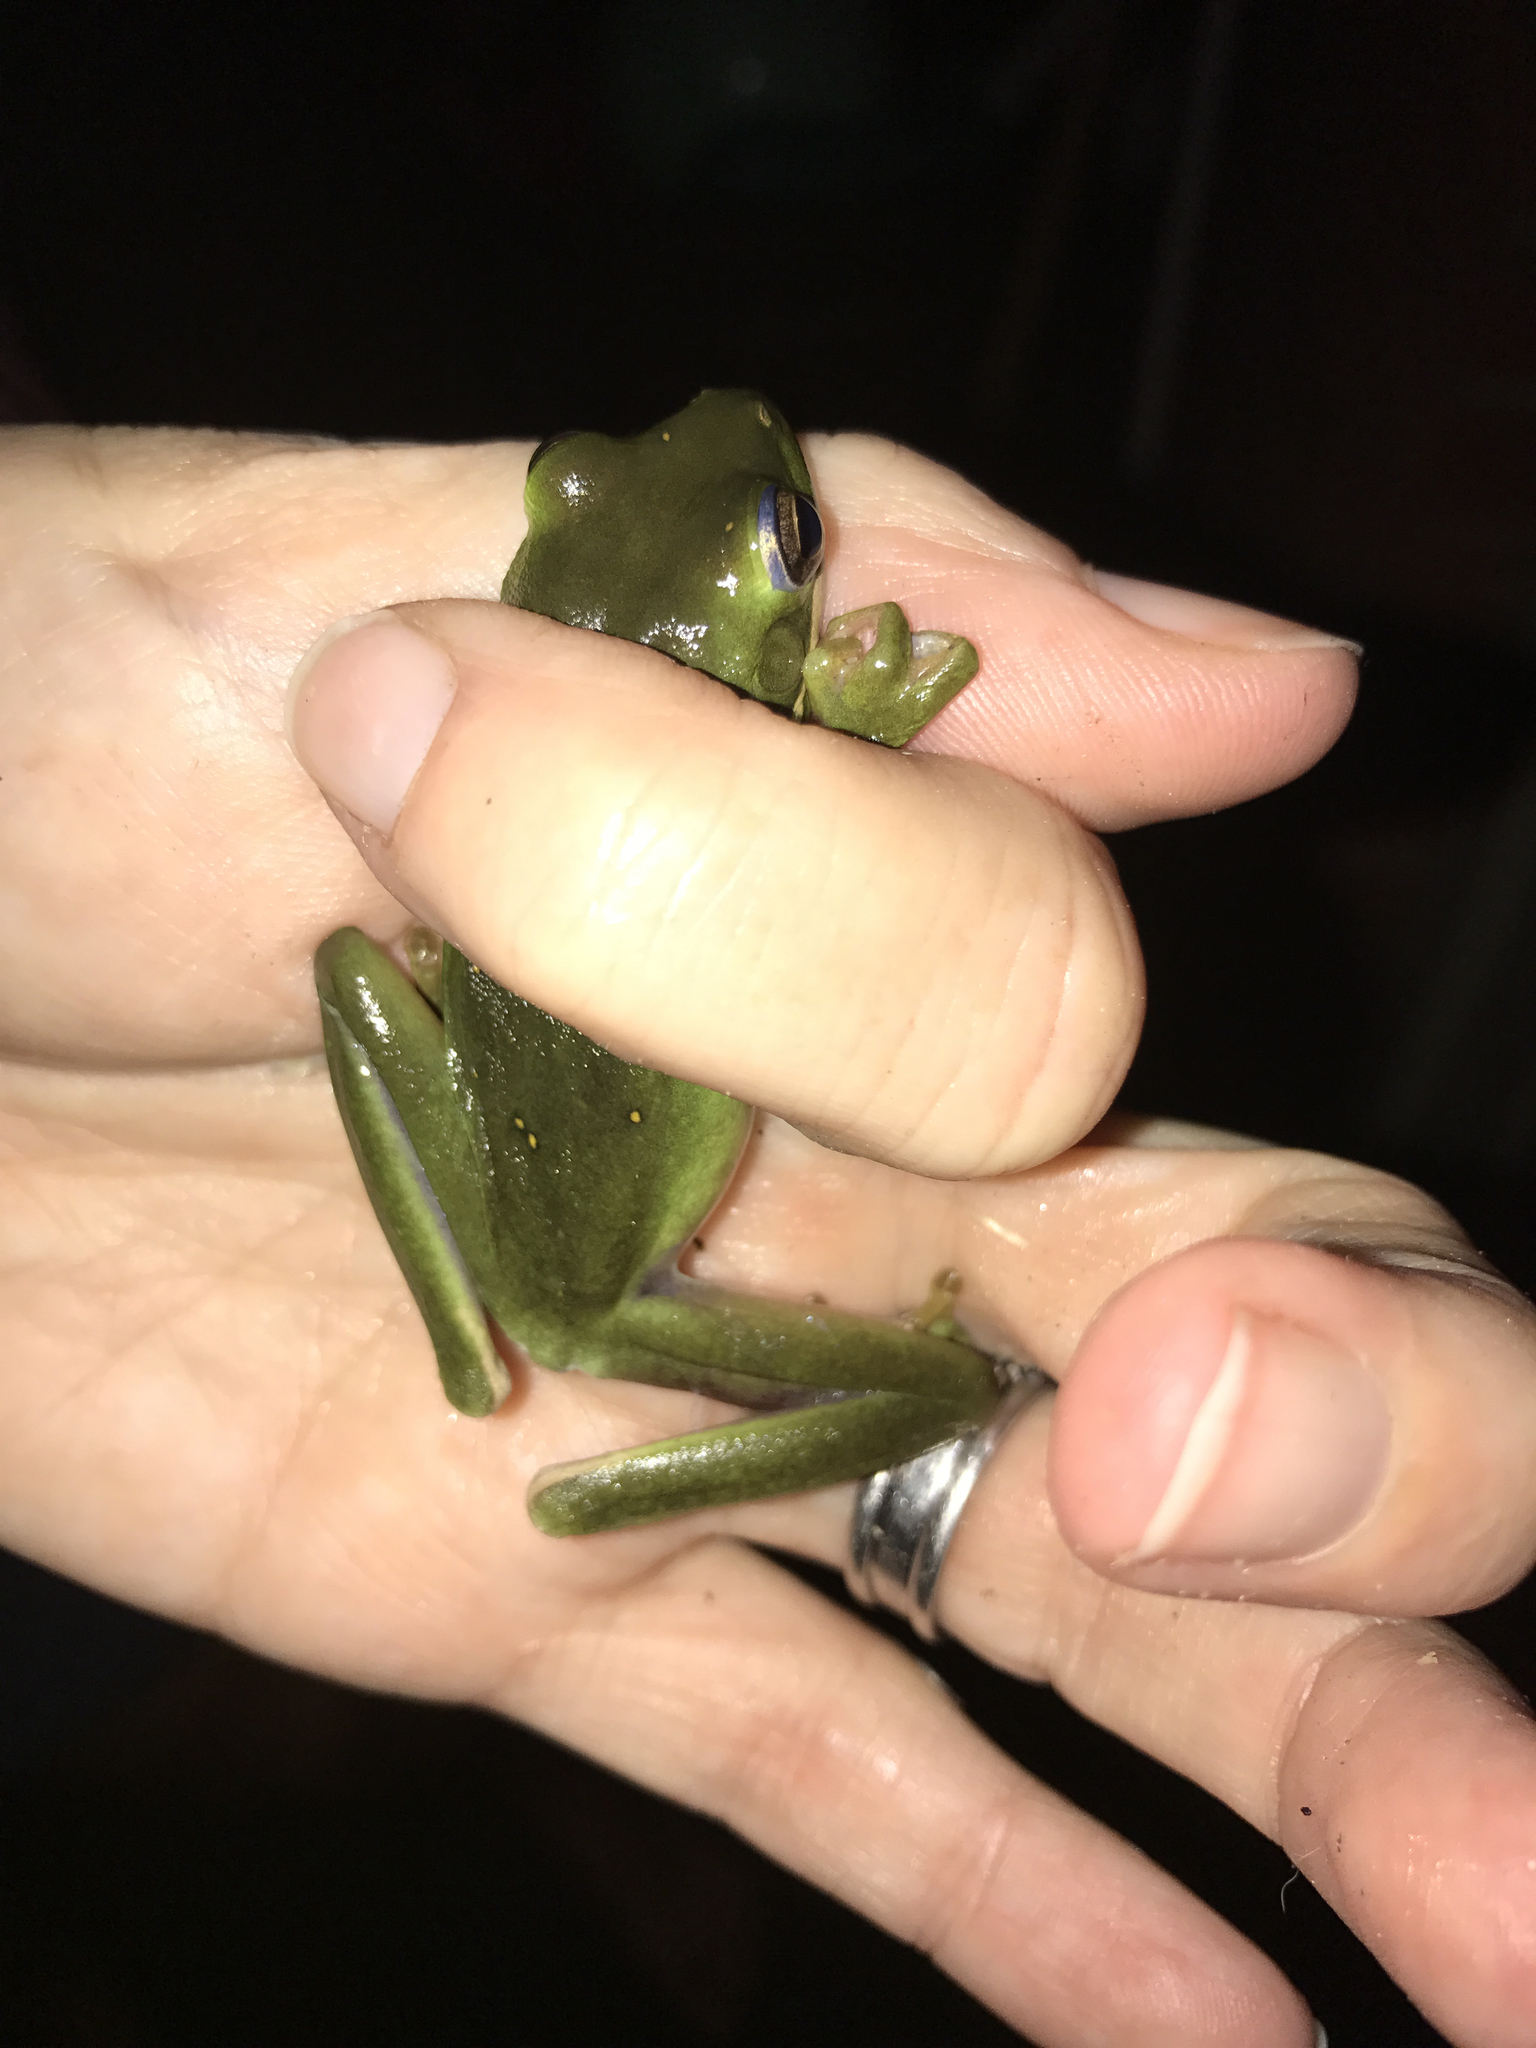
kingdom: Animalia
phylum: Chordata
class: Amphibia
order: Anura
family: Hylidae
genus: Dryophytes
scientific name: Dryophytes cinereus
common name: Green treefrog
